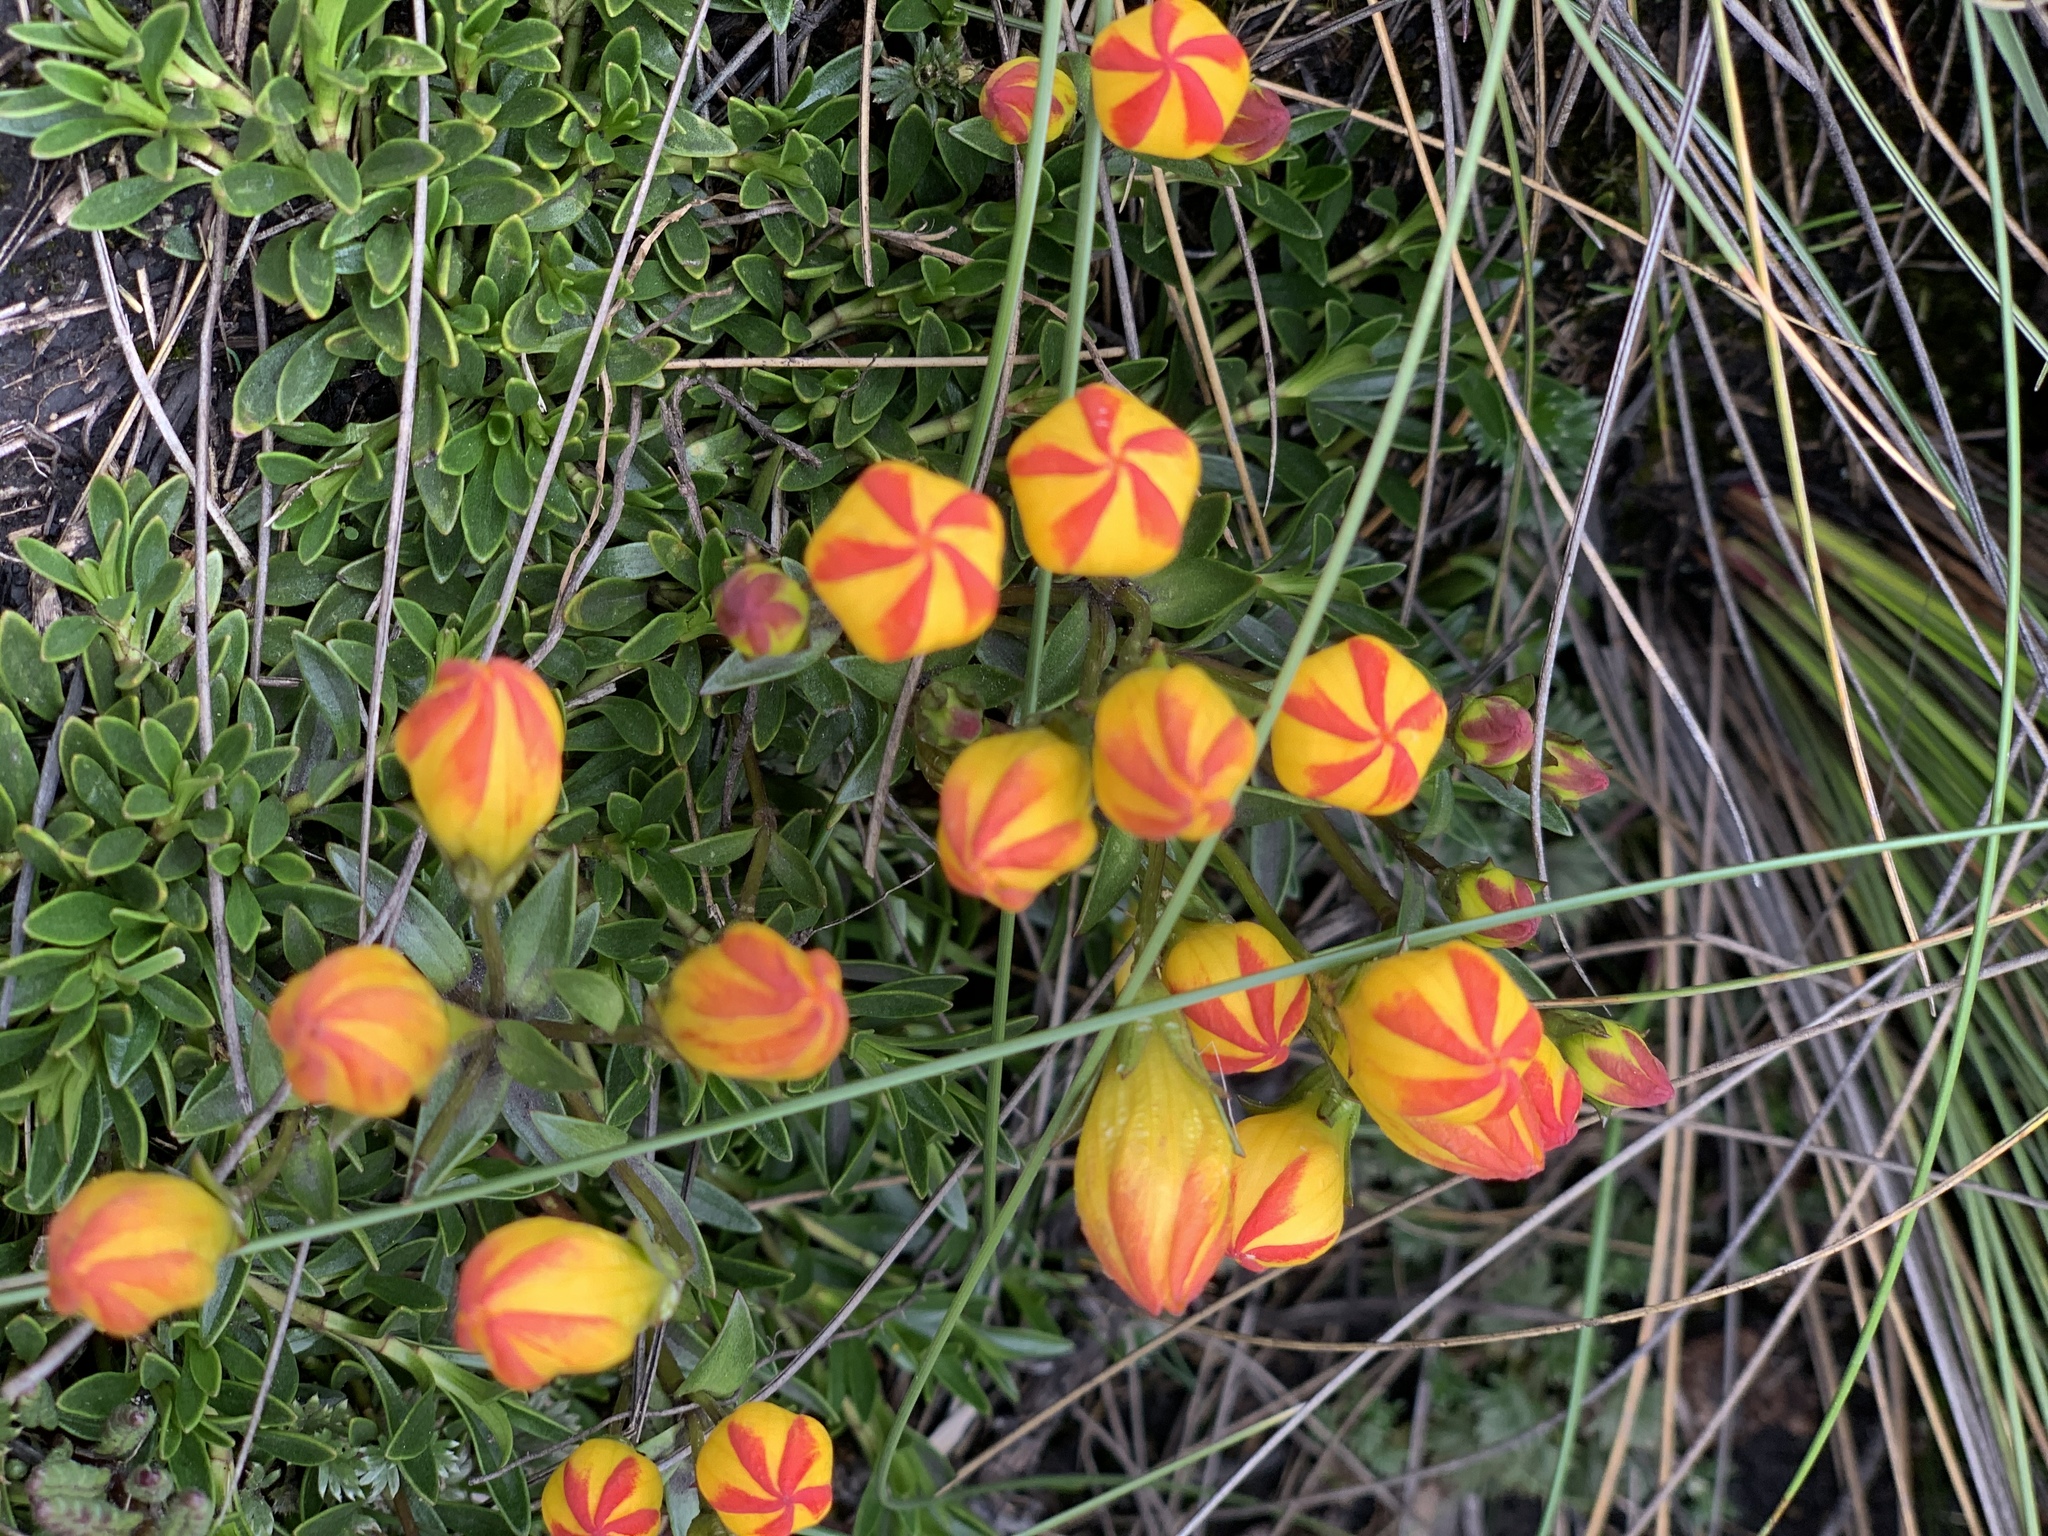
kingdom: Plantae
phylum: Tracheophyta
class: Magnoliopsida
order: Gentianales
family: Gentianaceae
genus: Gentianella
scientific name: Gentianella hirculus
